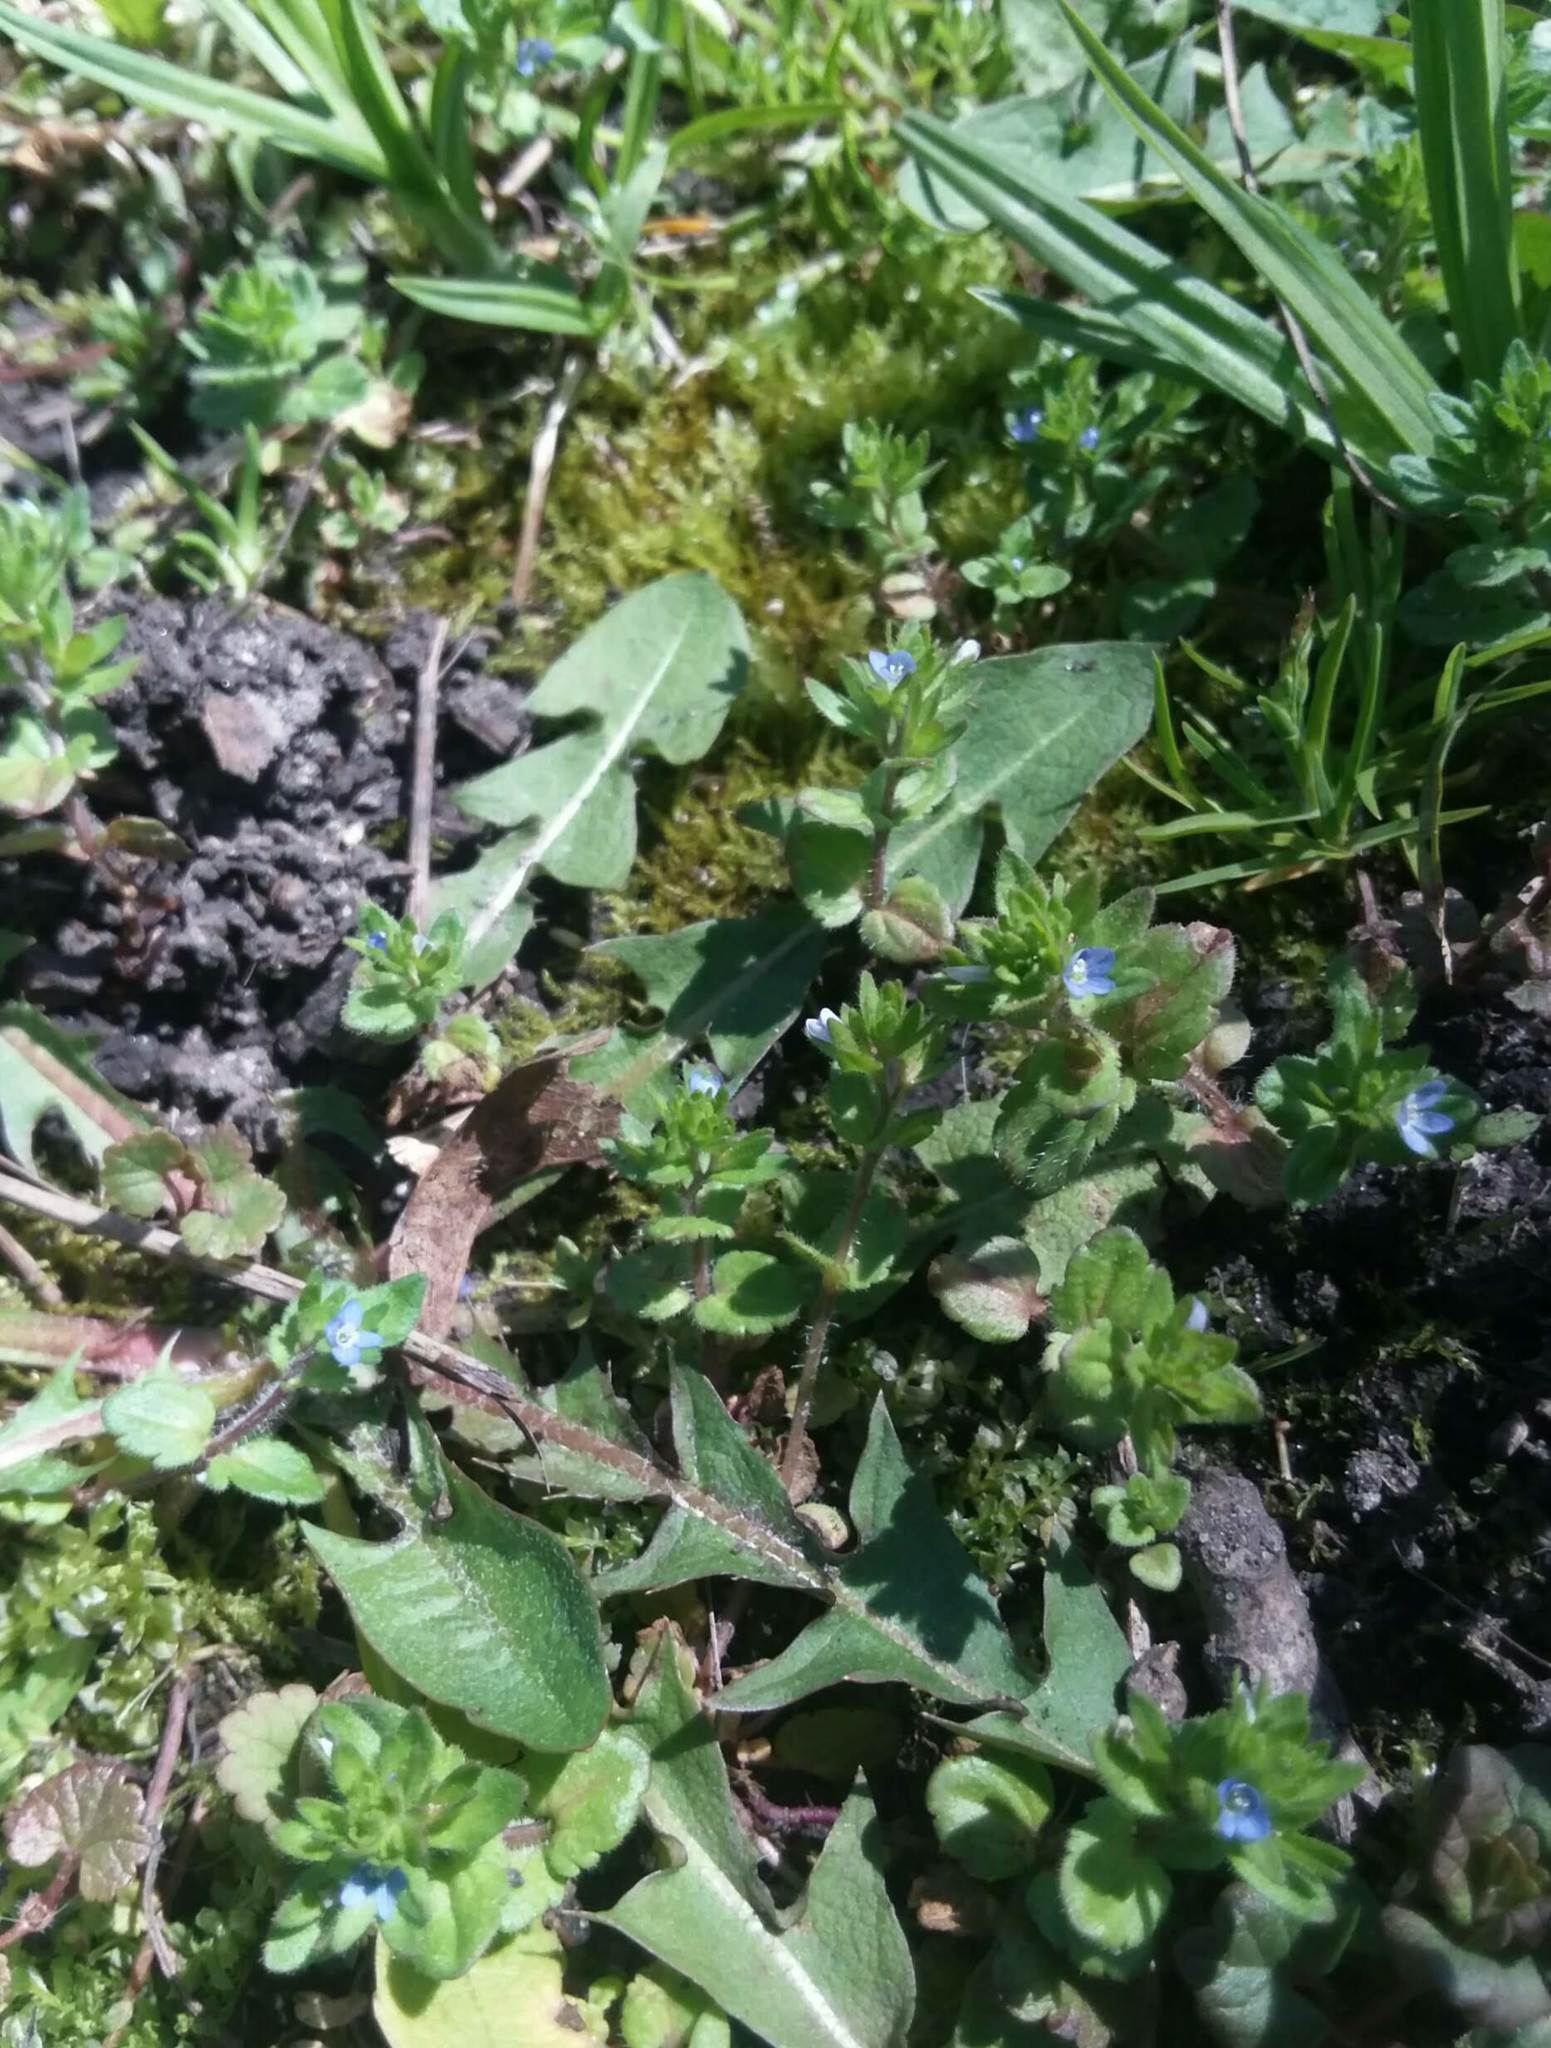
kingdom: Plantae
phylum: Tracheophyta
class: Magnoliopsida
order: Lamiales
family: Plantaginaceae
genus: Veronica
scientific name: Veronica arvensis
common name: Corn speedwell
